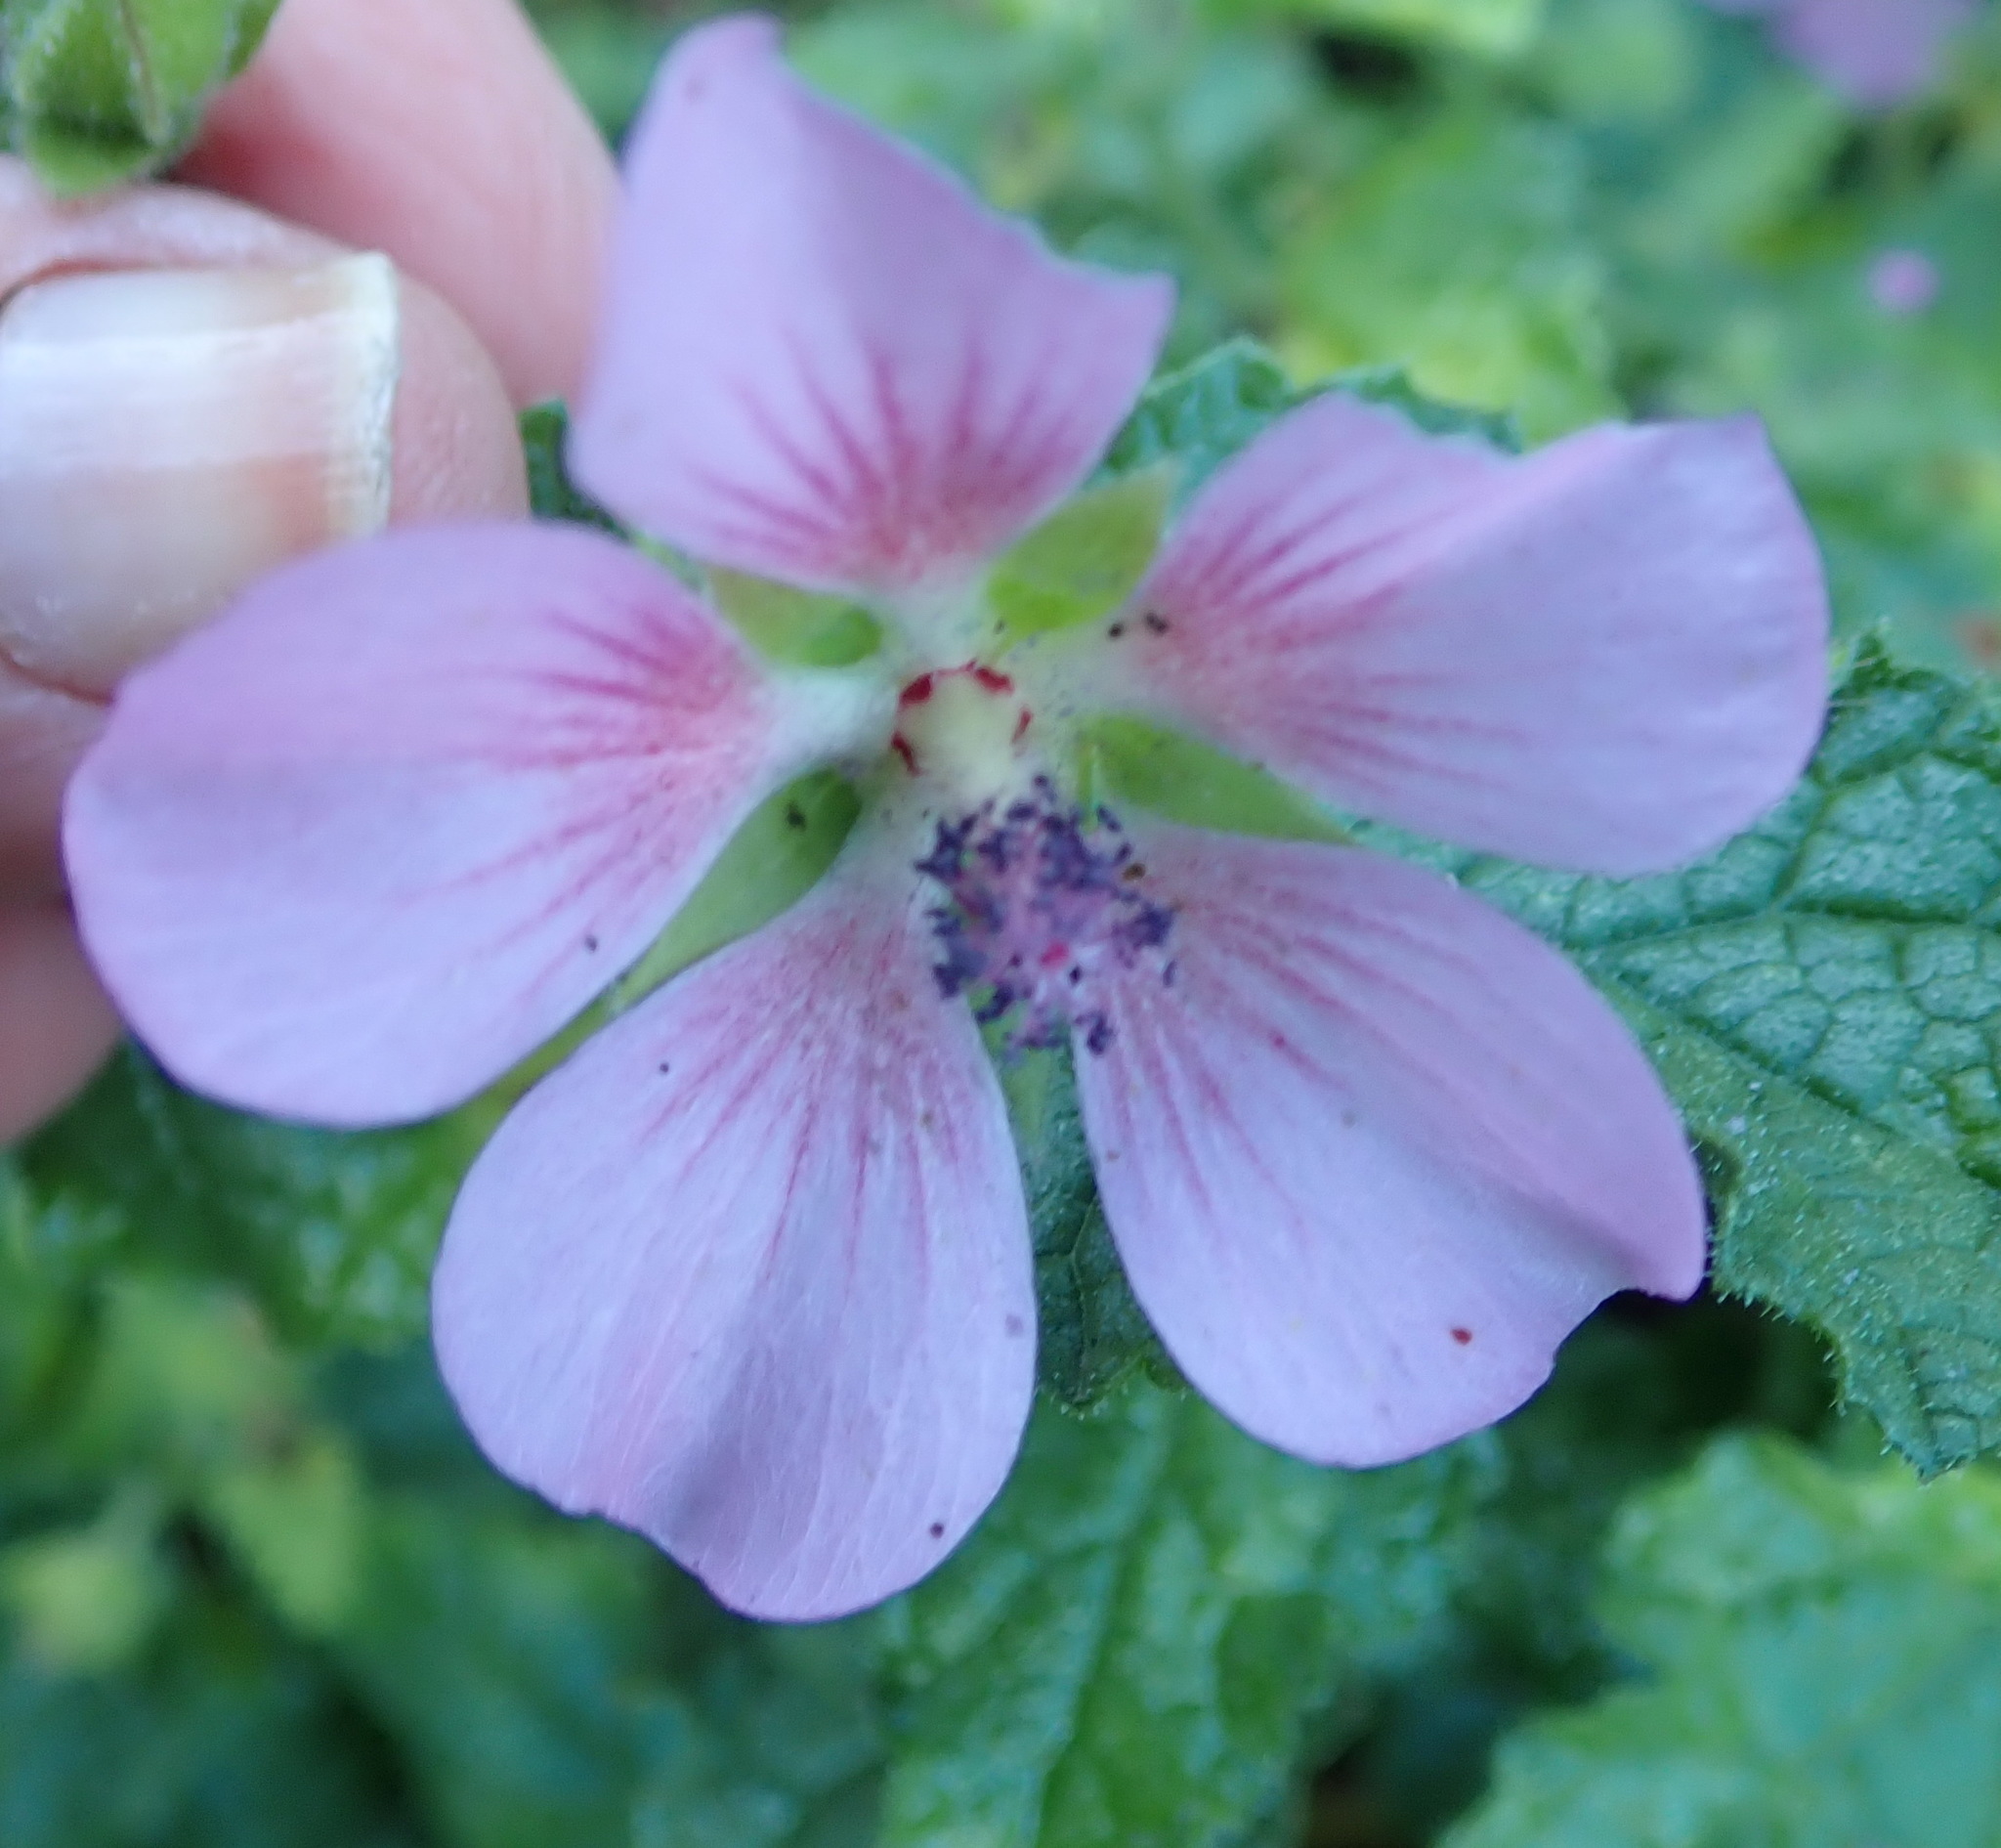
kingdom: Plantae
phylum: Tracheophyta
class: Magnoliopsida
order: Malvales
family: Malvaceae
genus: Anisodontea
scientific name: Anisodontea scabrosa
